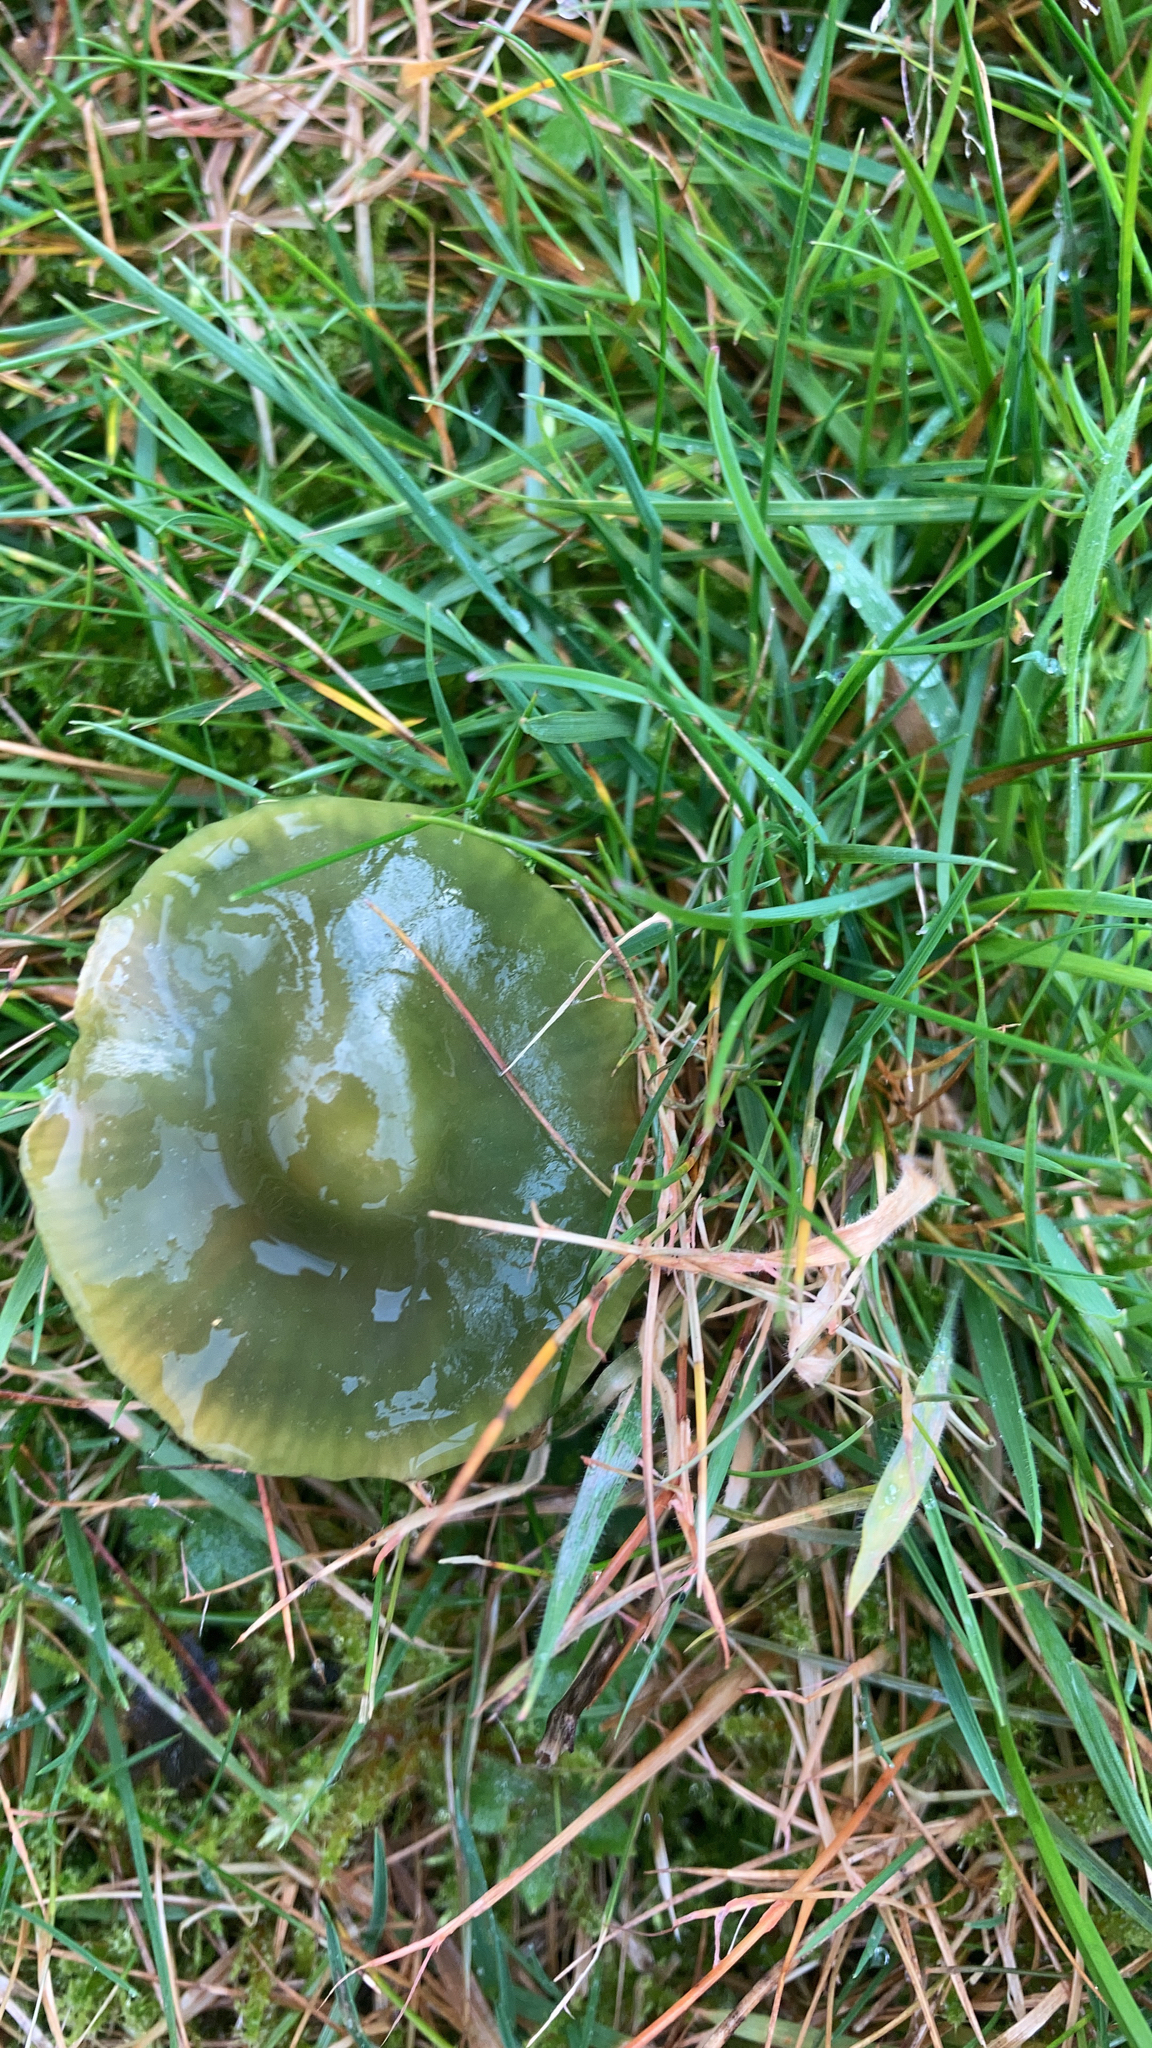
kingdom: Fungi
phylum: Basidiomycota
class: Agaricomycetes
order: Agaricales
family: Hygrophoraceae
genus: Gliophorus
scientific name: Gliophorus psittacinus
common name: Parrot wax-cap
